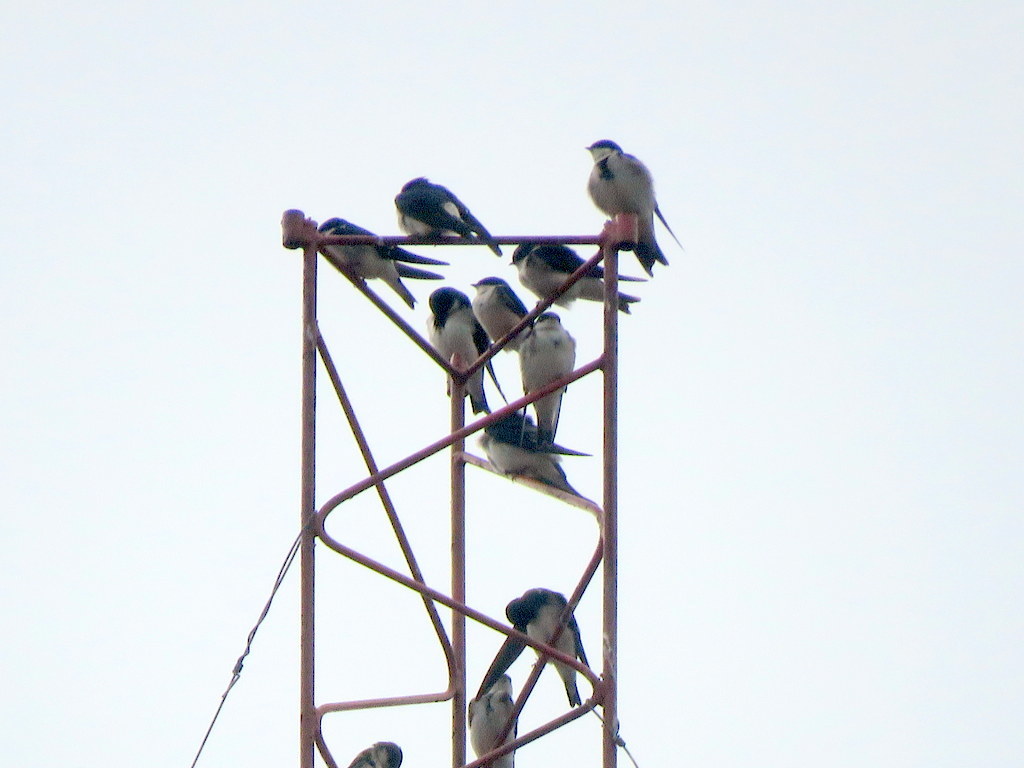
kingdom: Animalia
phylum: Chordata
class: Aves
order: Passeriformes
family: Hirundinidae
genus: Tachycineta
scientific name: Tachycineta leucorrhoa
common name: White-rumped swallow
